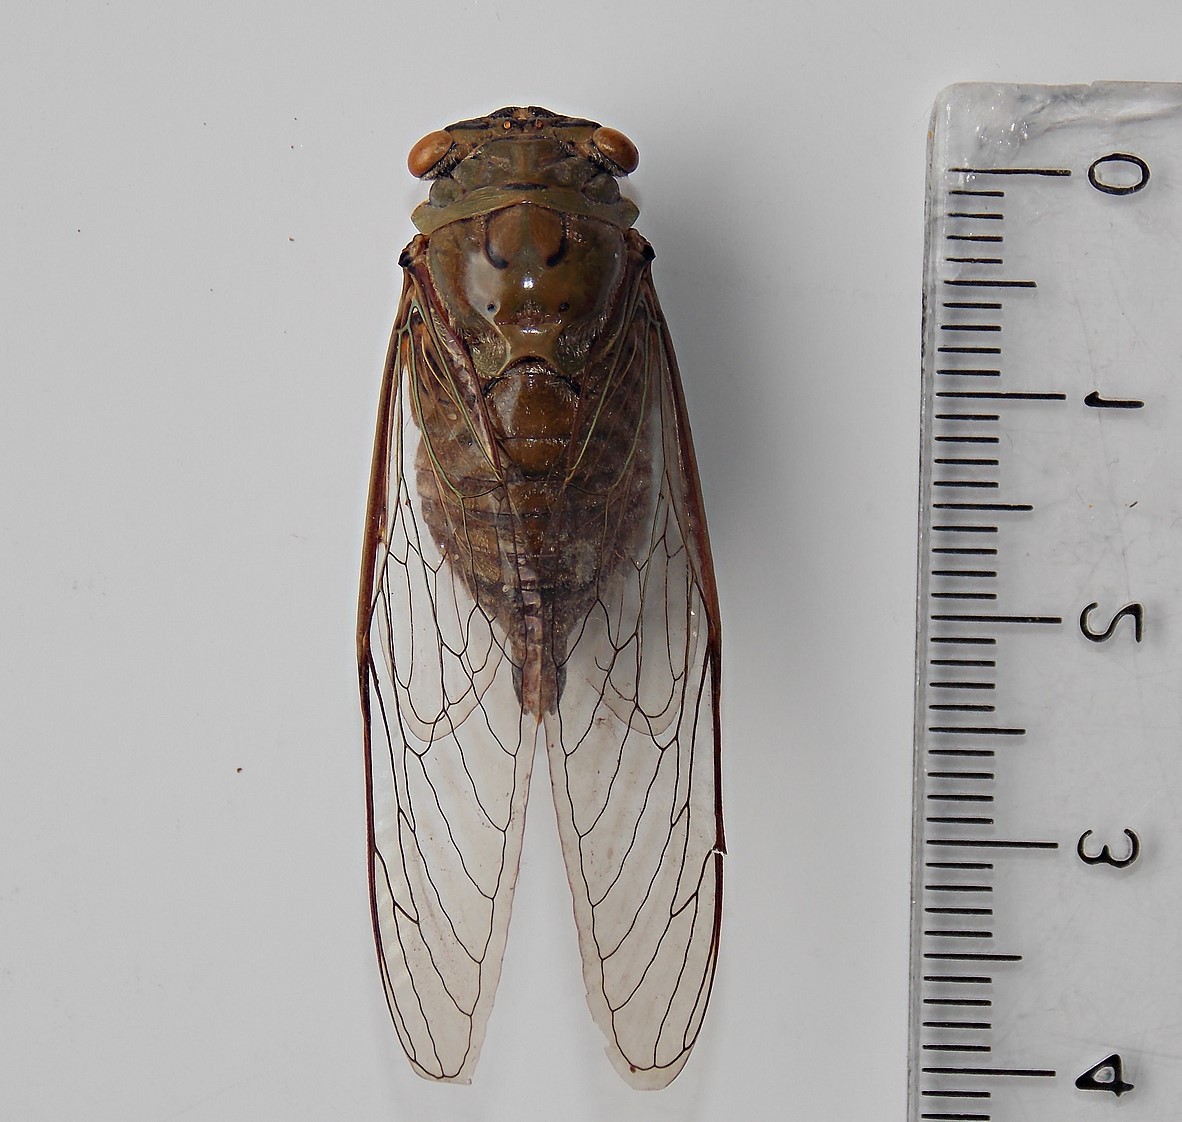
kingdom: Animalia
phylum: Arthropoda
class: Insecta
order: Hemiptera
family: Cicadidae
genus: Dorisiana
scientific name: Dorisiana noriegai
